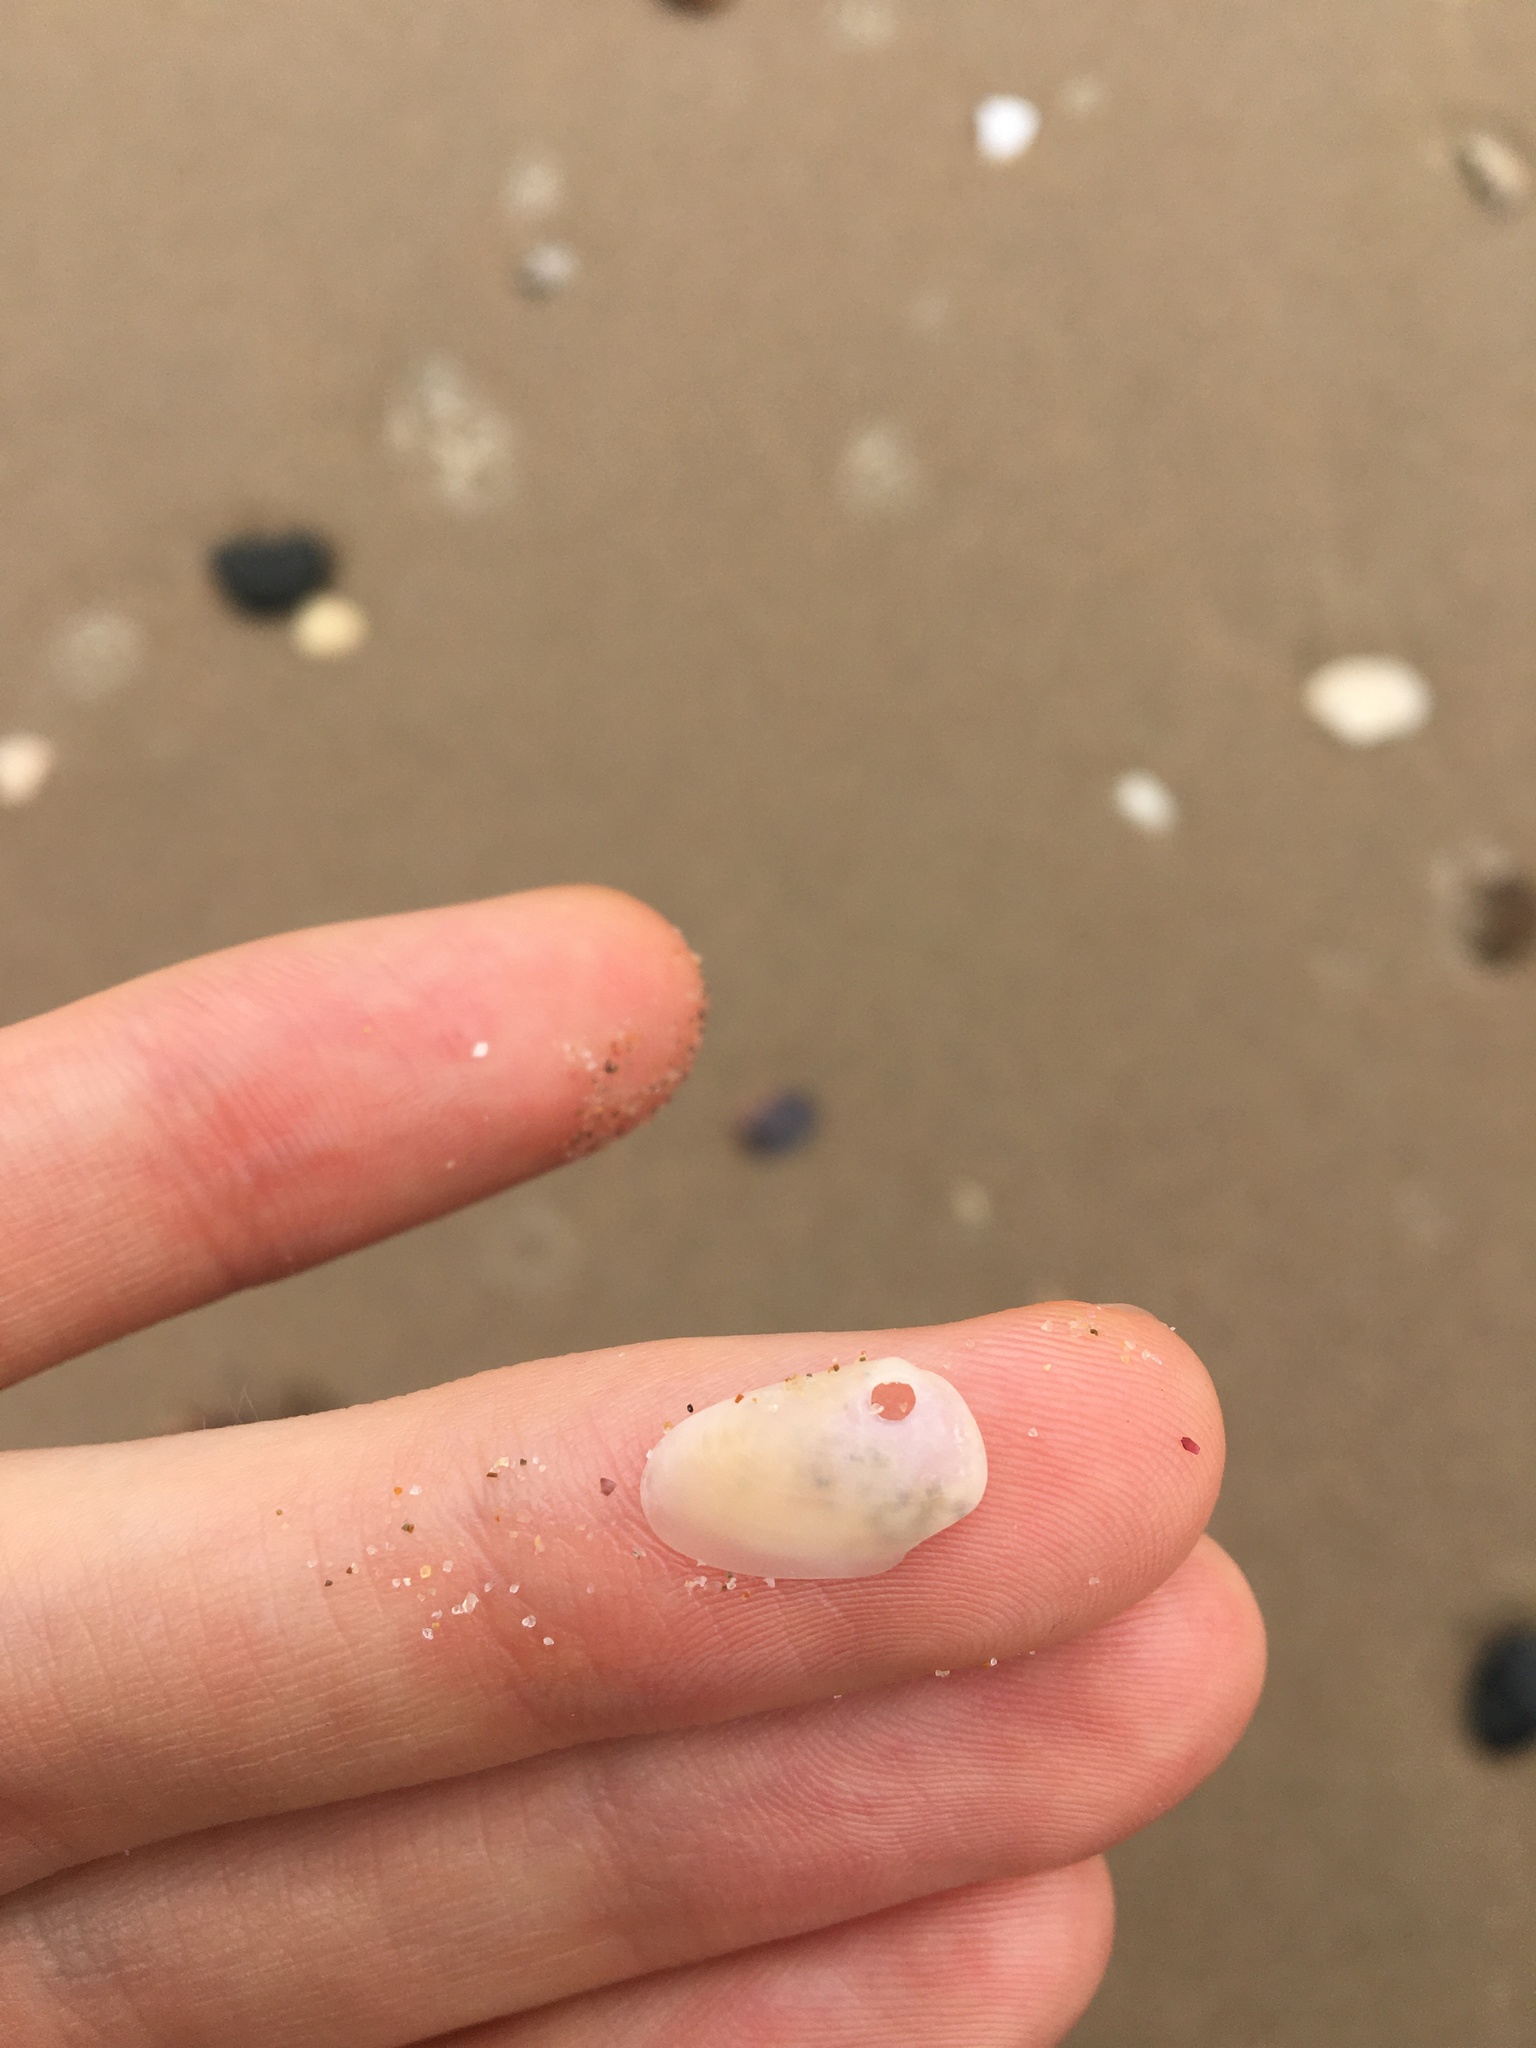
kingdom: Animalia
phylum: Mollusca
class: Bivalvia
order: Venerida
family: Mesodesmatidae
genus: Paphies
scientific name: Paphies angusta
